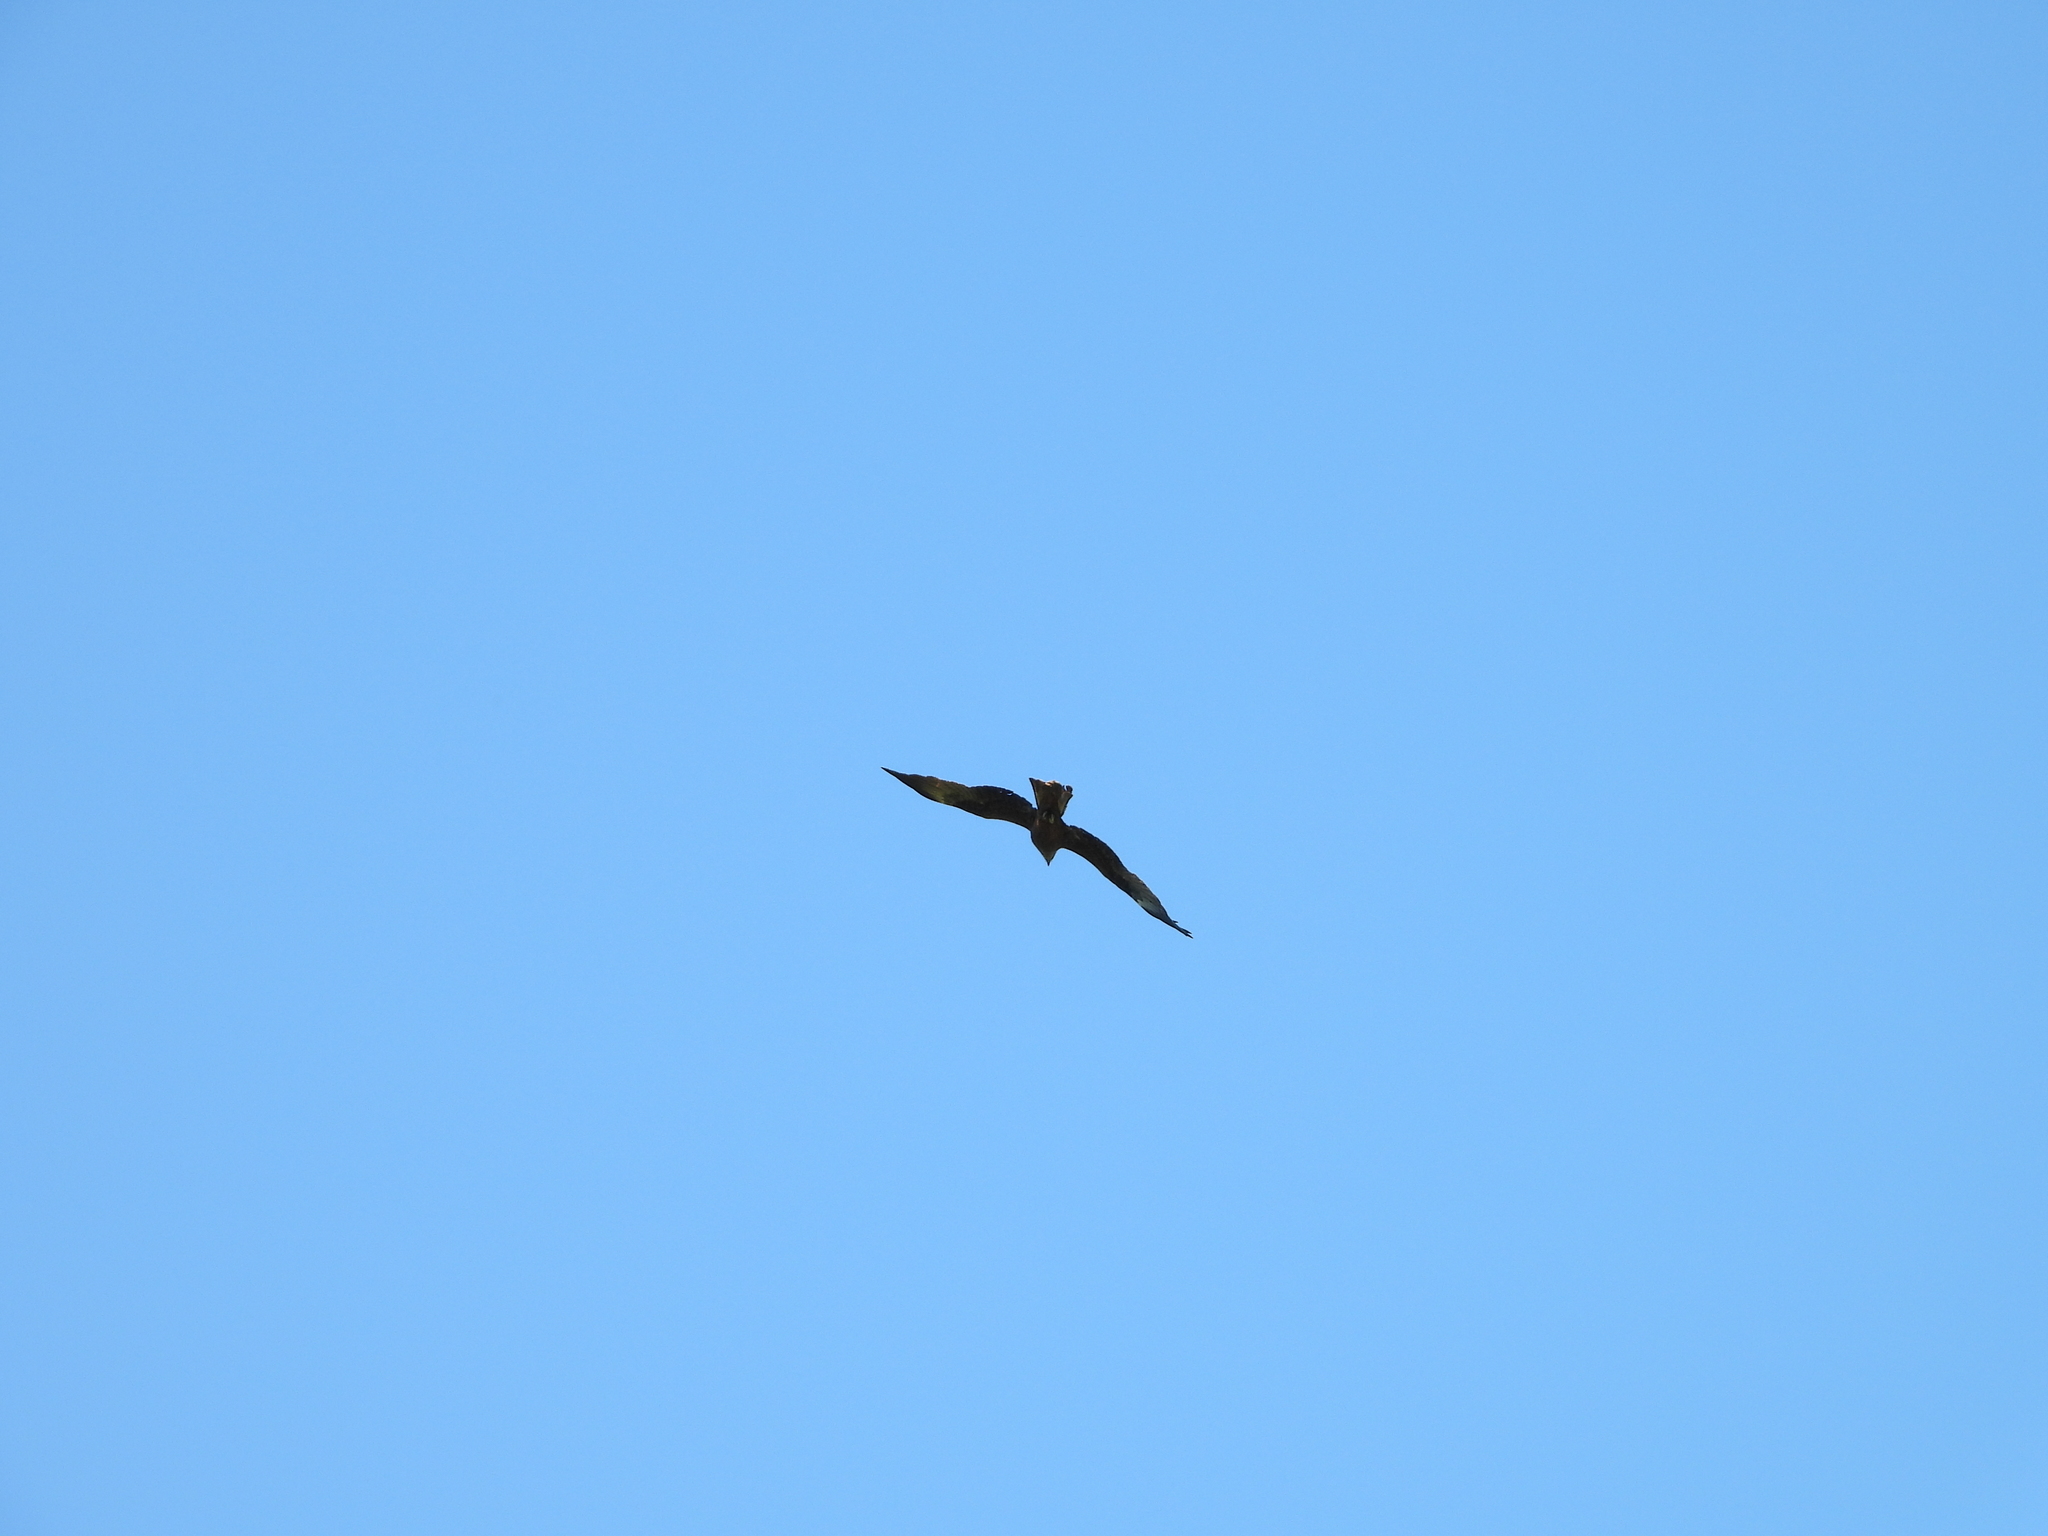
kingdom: Animalia
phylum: Chordata
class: Aves
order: Accipitriformes
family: Accipitridae
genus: Milvus
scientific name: Milvus migrans
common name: Black kite
